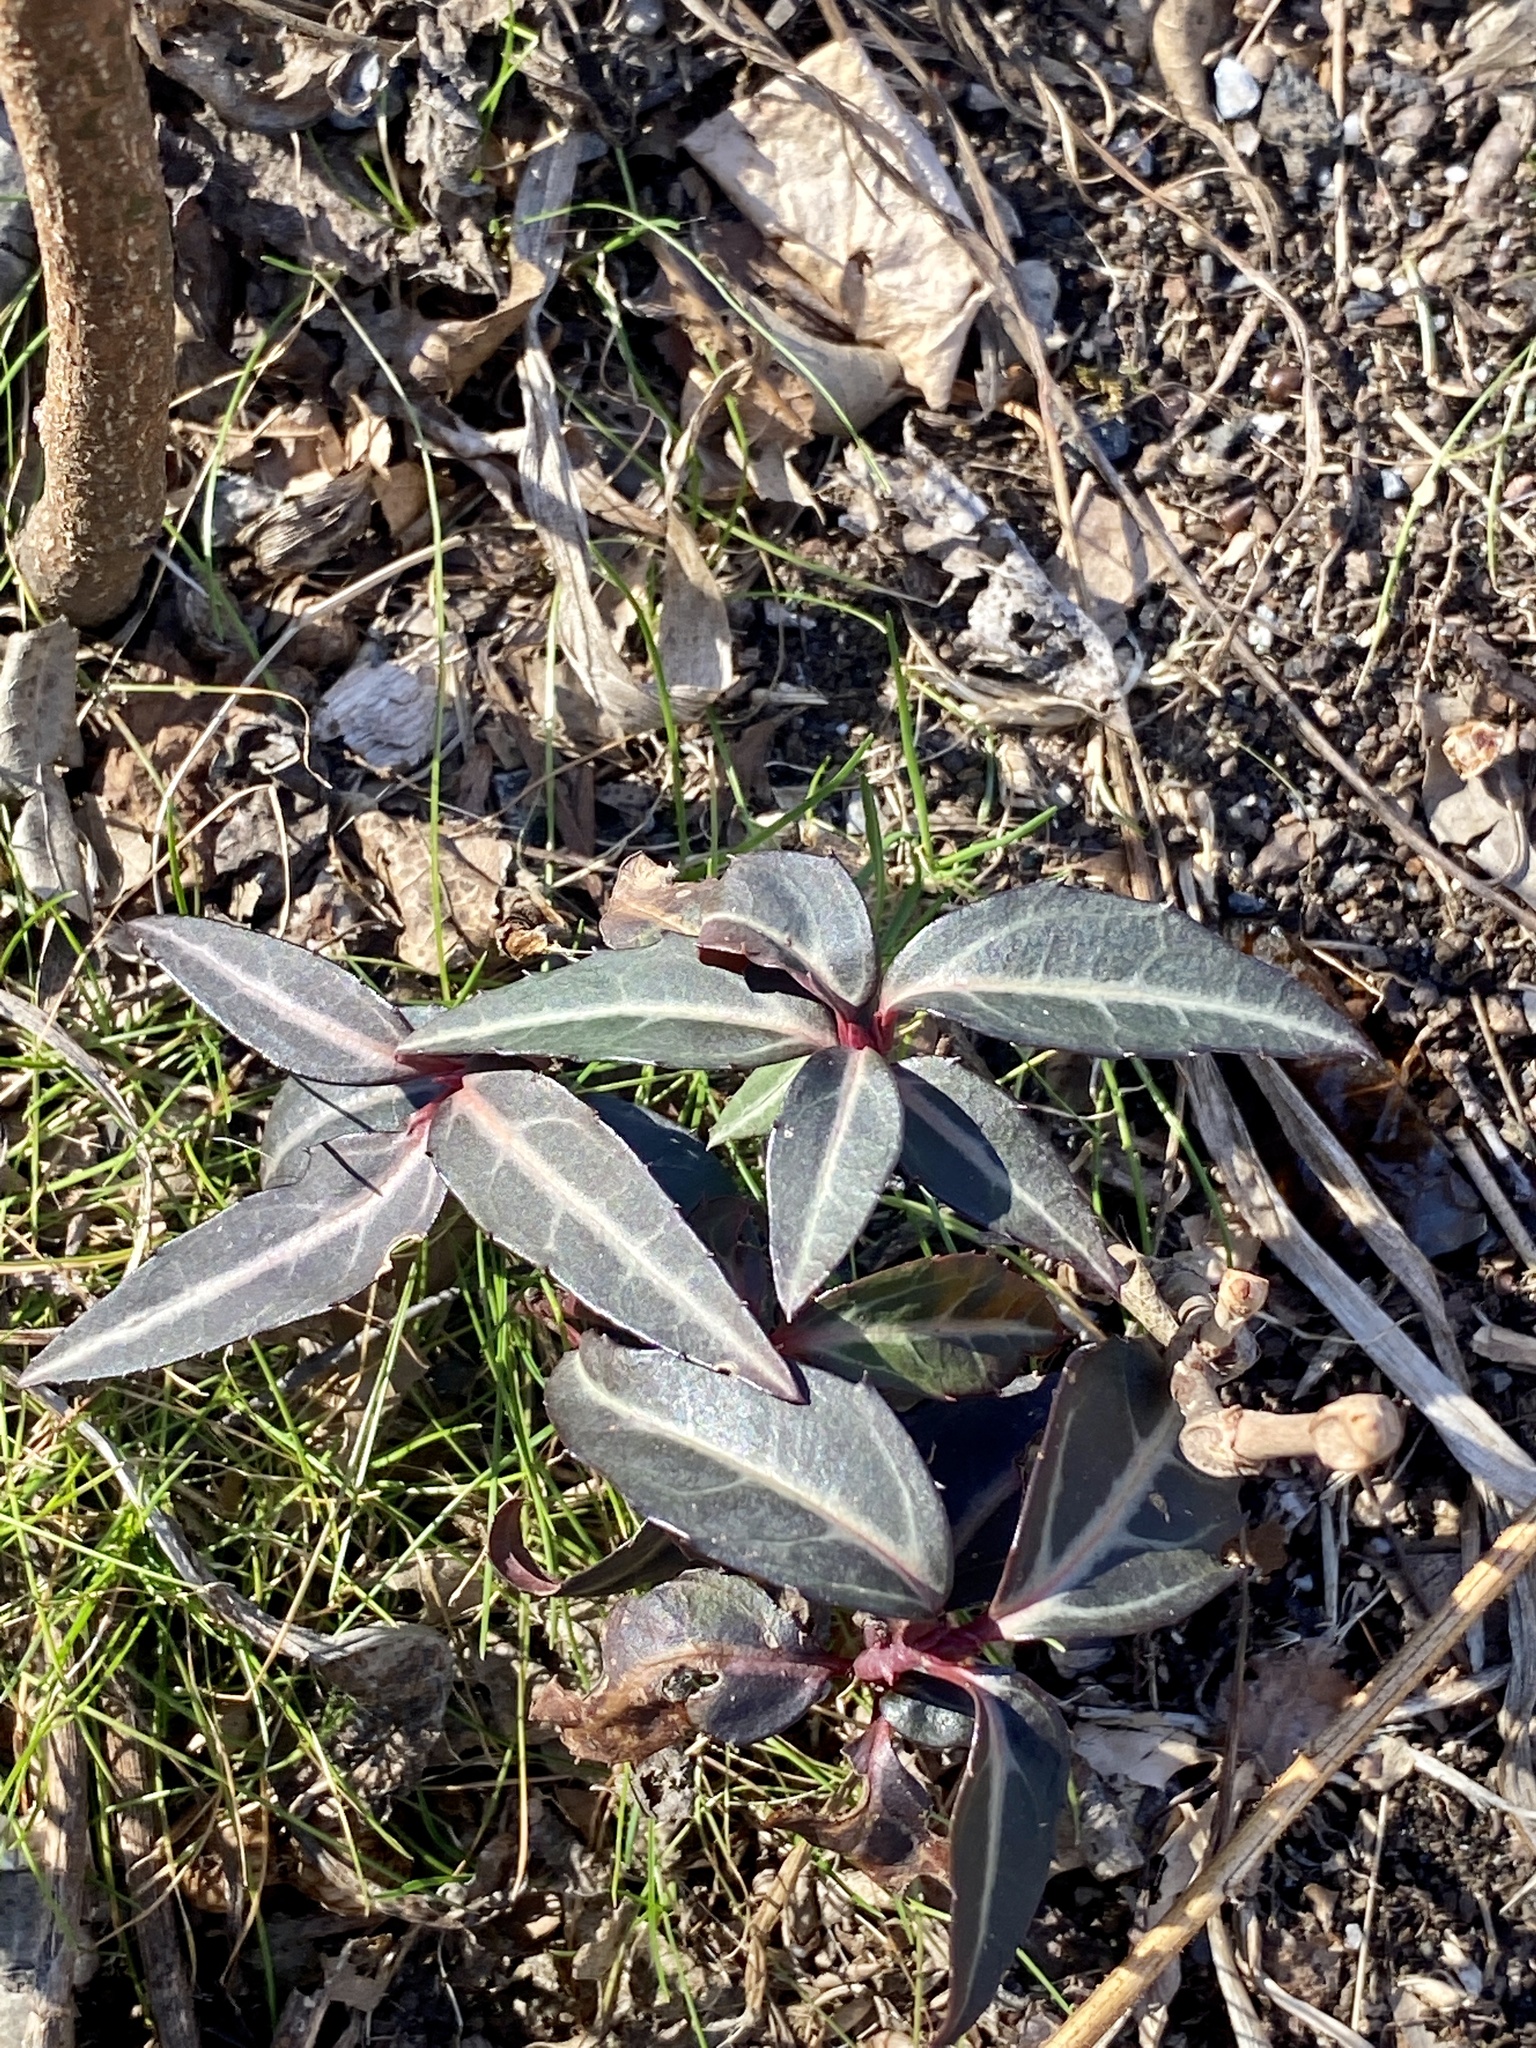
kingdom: Plantae
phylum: Tracheophyta
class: Magnoliopsida
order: Ericales
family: Ericaceae
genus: Chimaphila
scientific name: Chimaphila maculata
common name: Spotted pipsissewa
